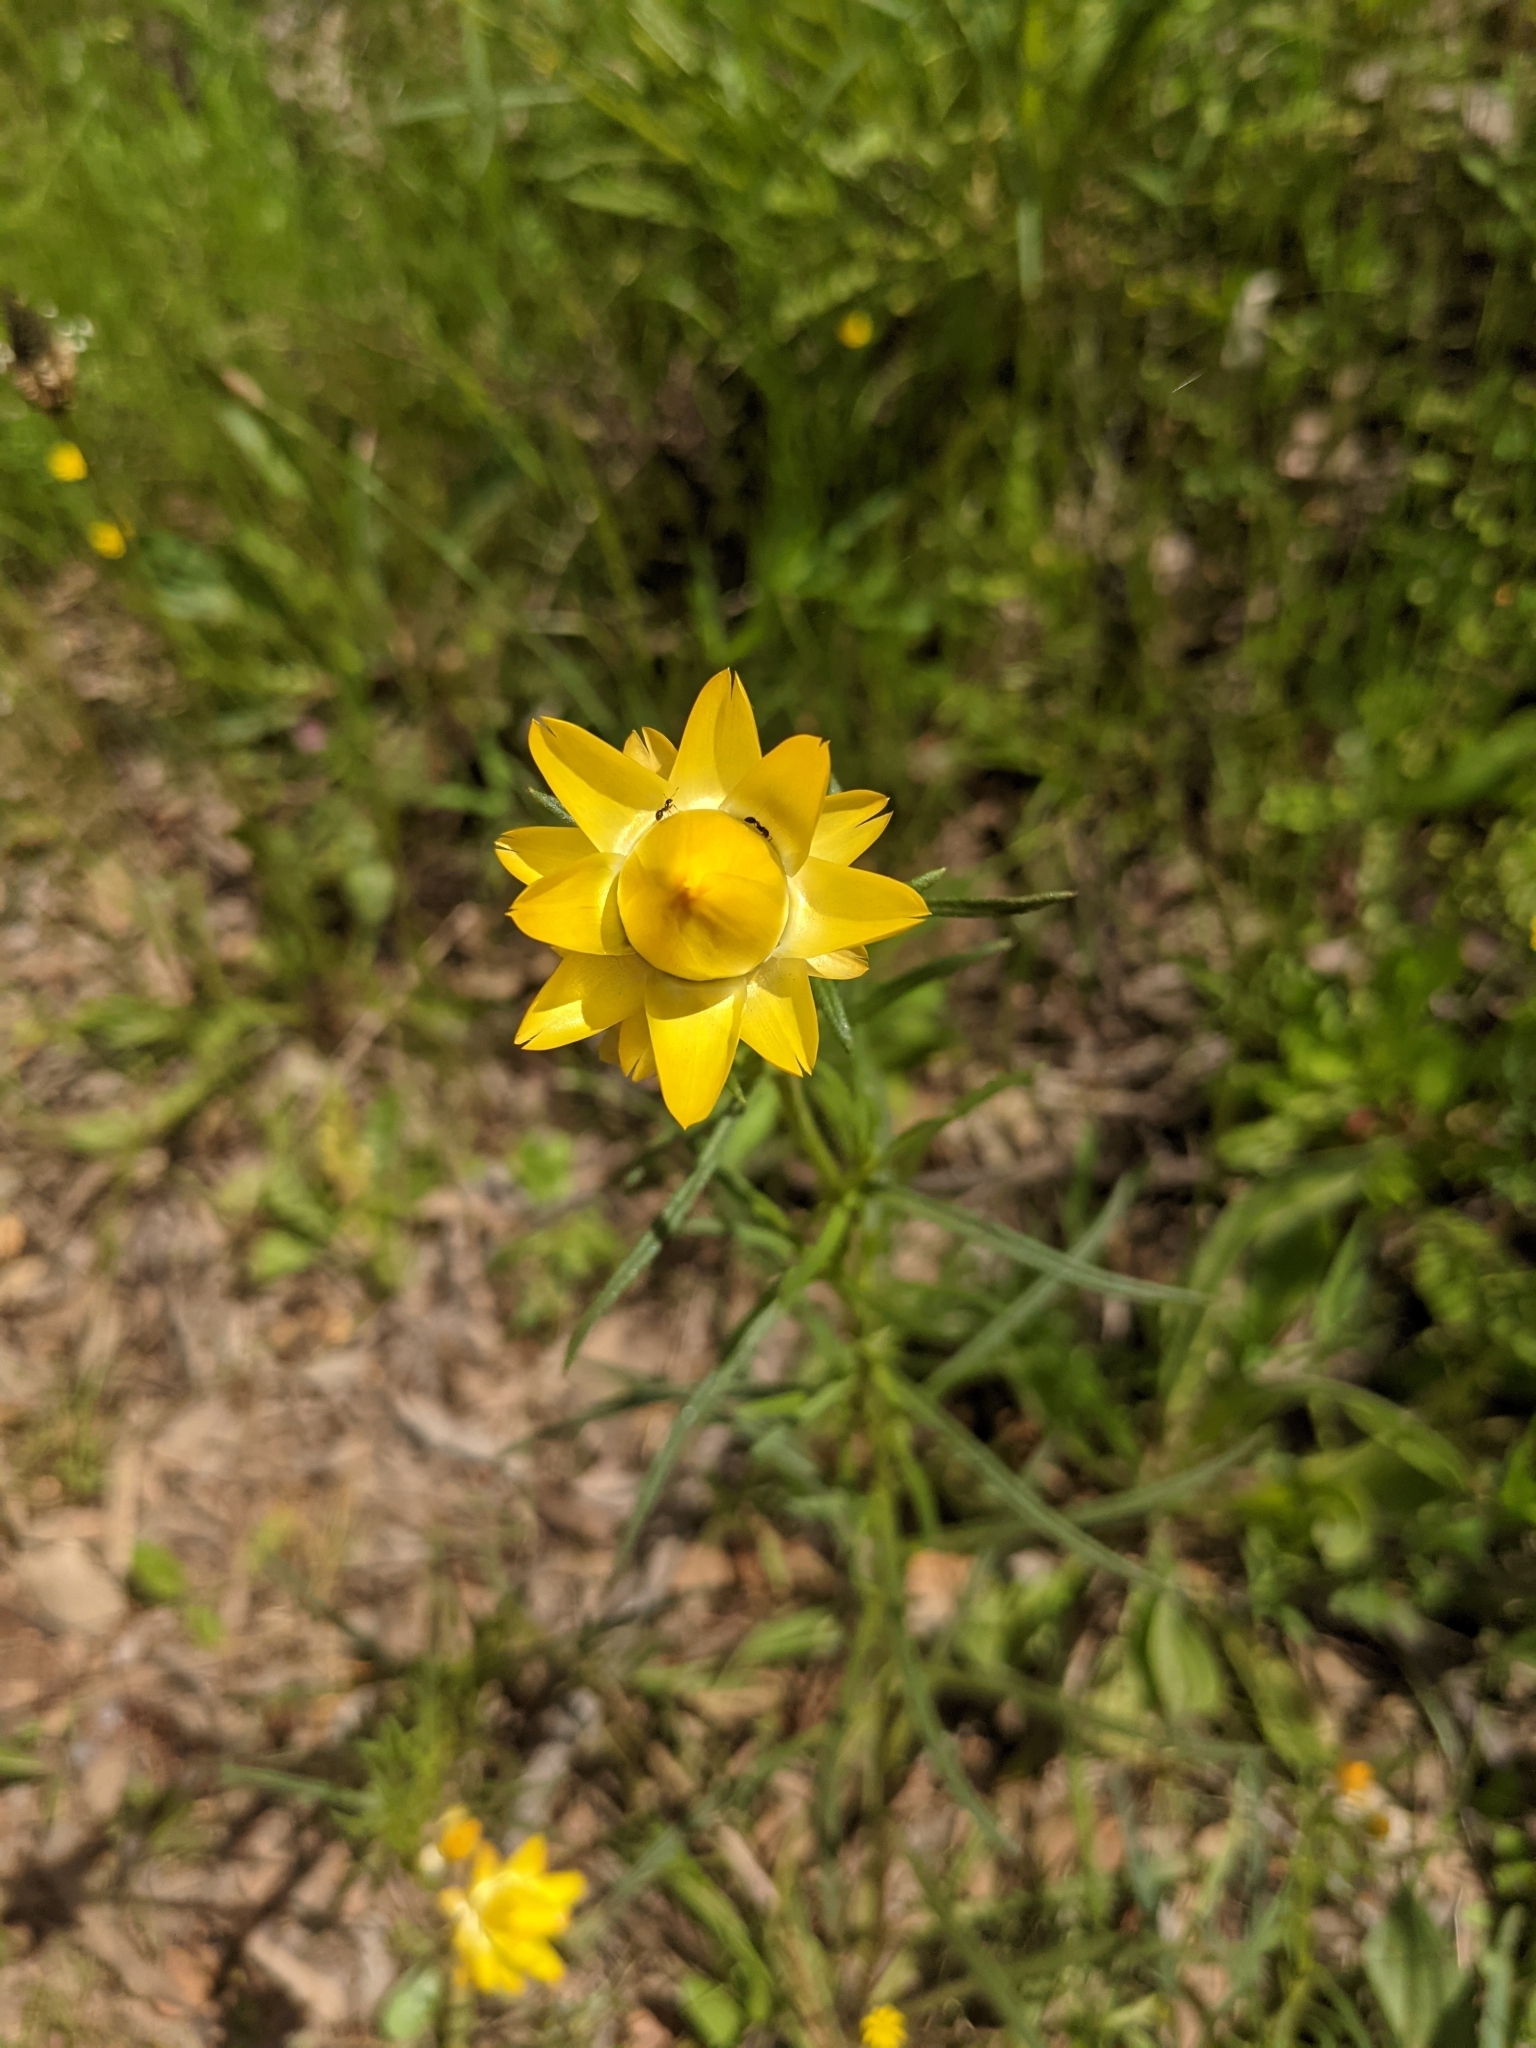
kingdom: Plantae
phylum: Tracheophyta
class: Magnoliopsida
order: Asterales
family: Asteraceae
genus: Xerochrysum
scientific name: Xerochrysum viscosum
